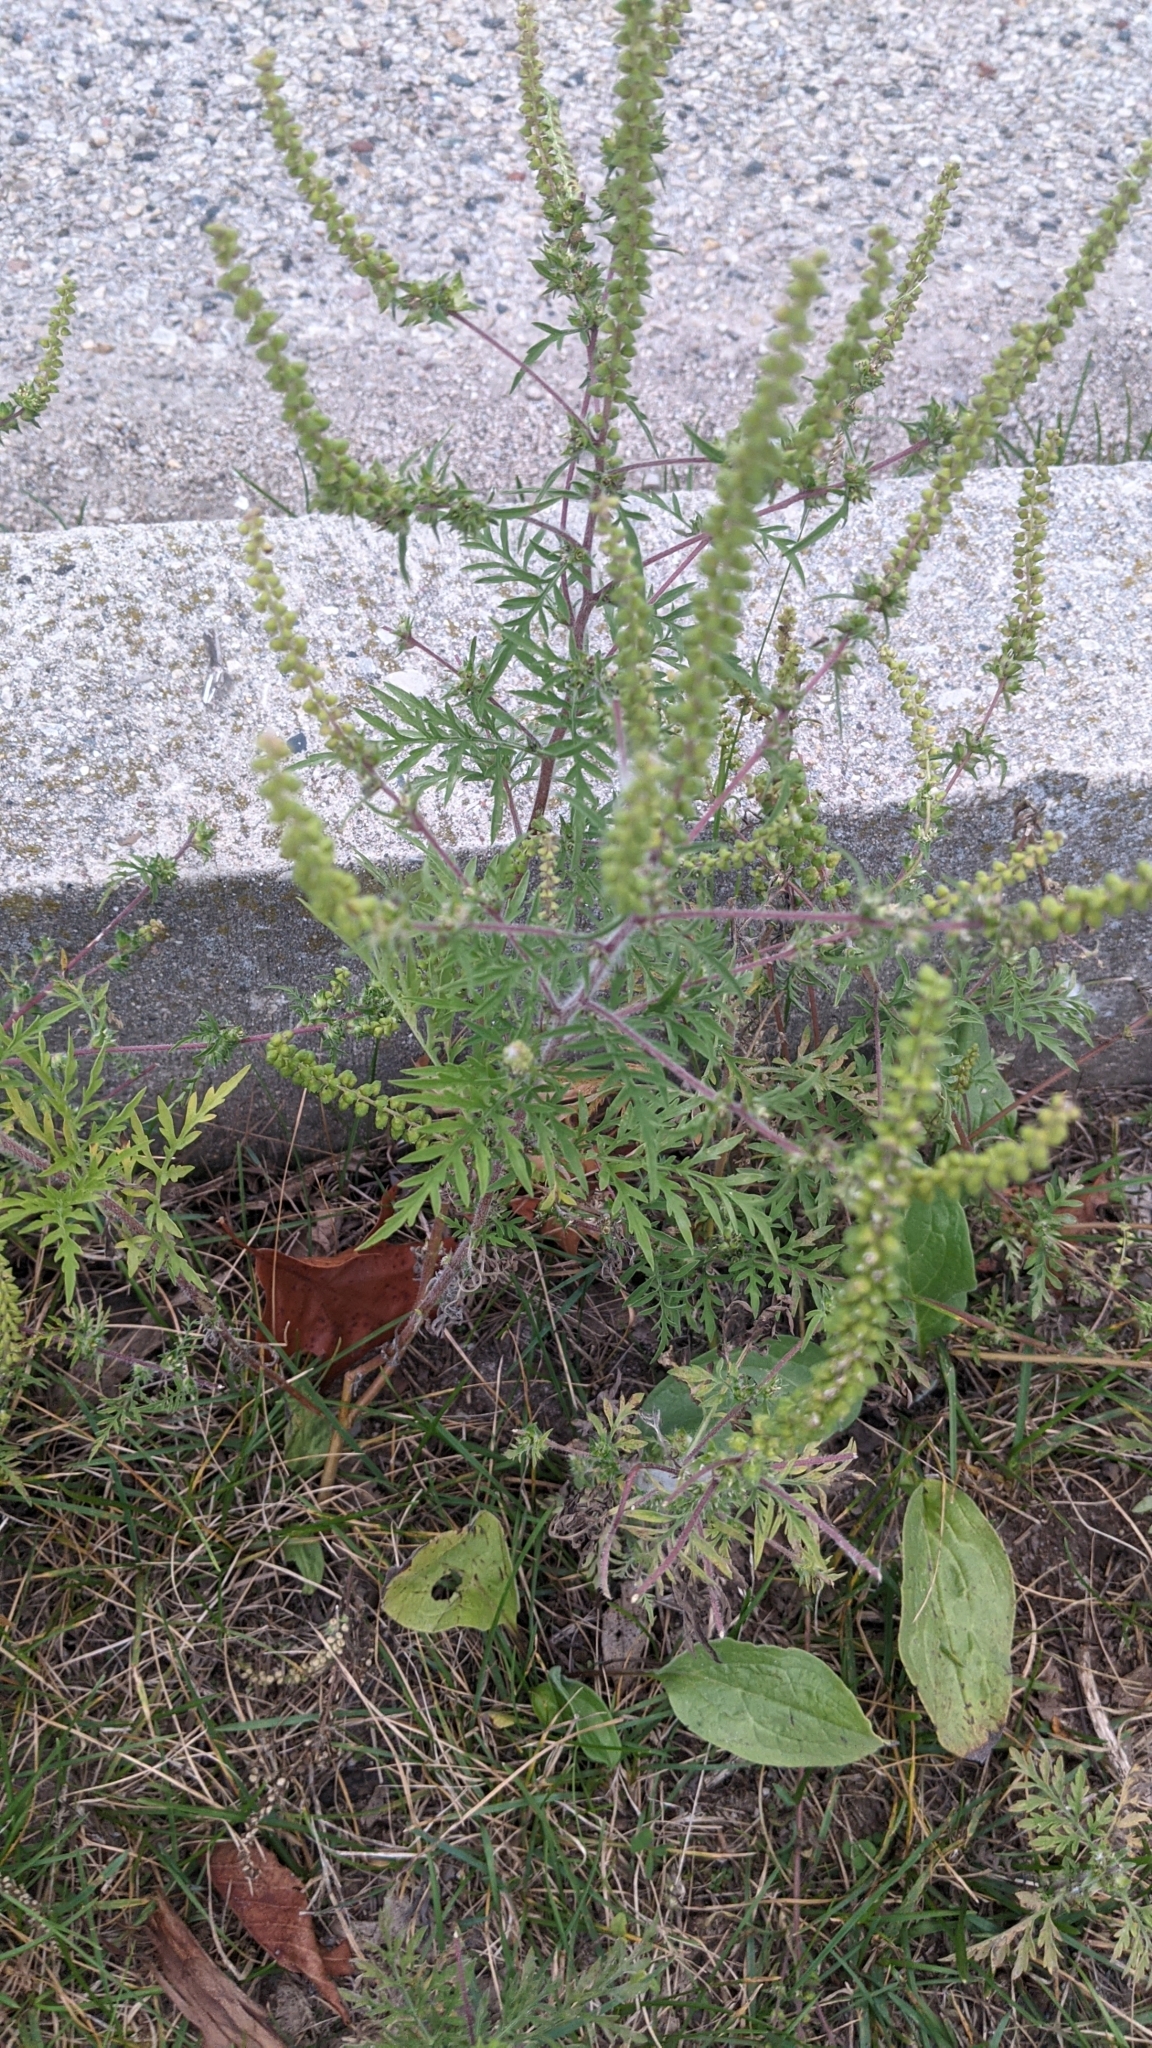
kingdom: Plantae
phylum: Tracheophyta
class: Magnoliopsida
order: Asterales
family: Asteraceae
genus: Ambrosia
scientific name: Ambrosia artemisiifolia
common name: Annual ragweed
